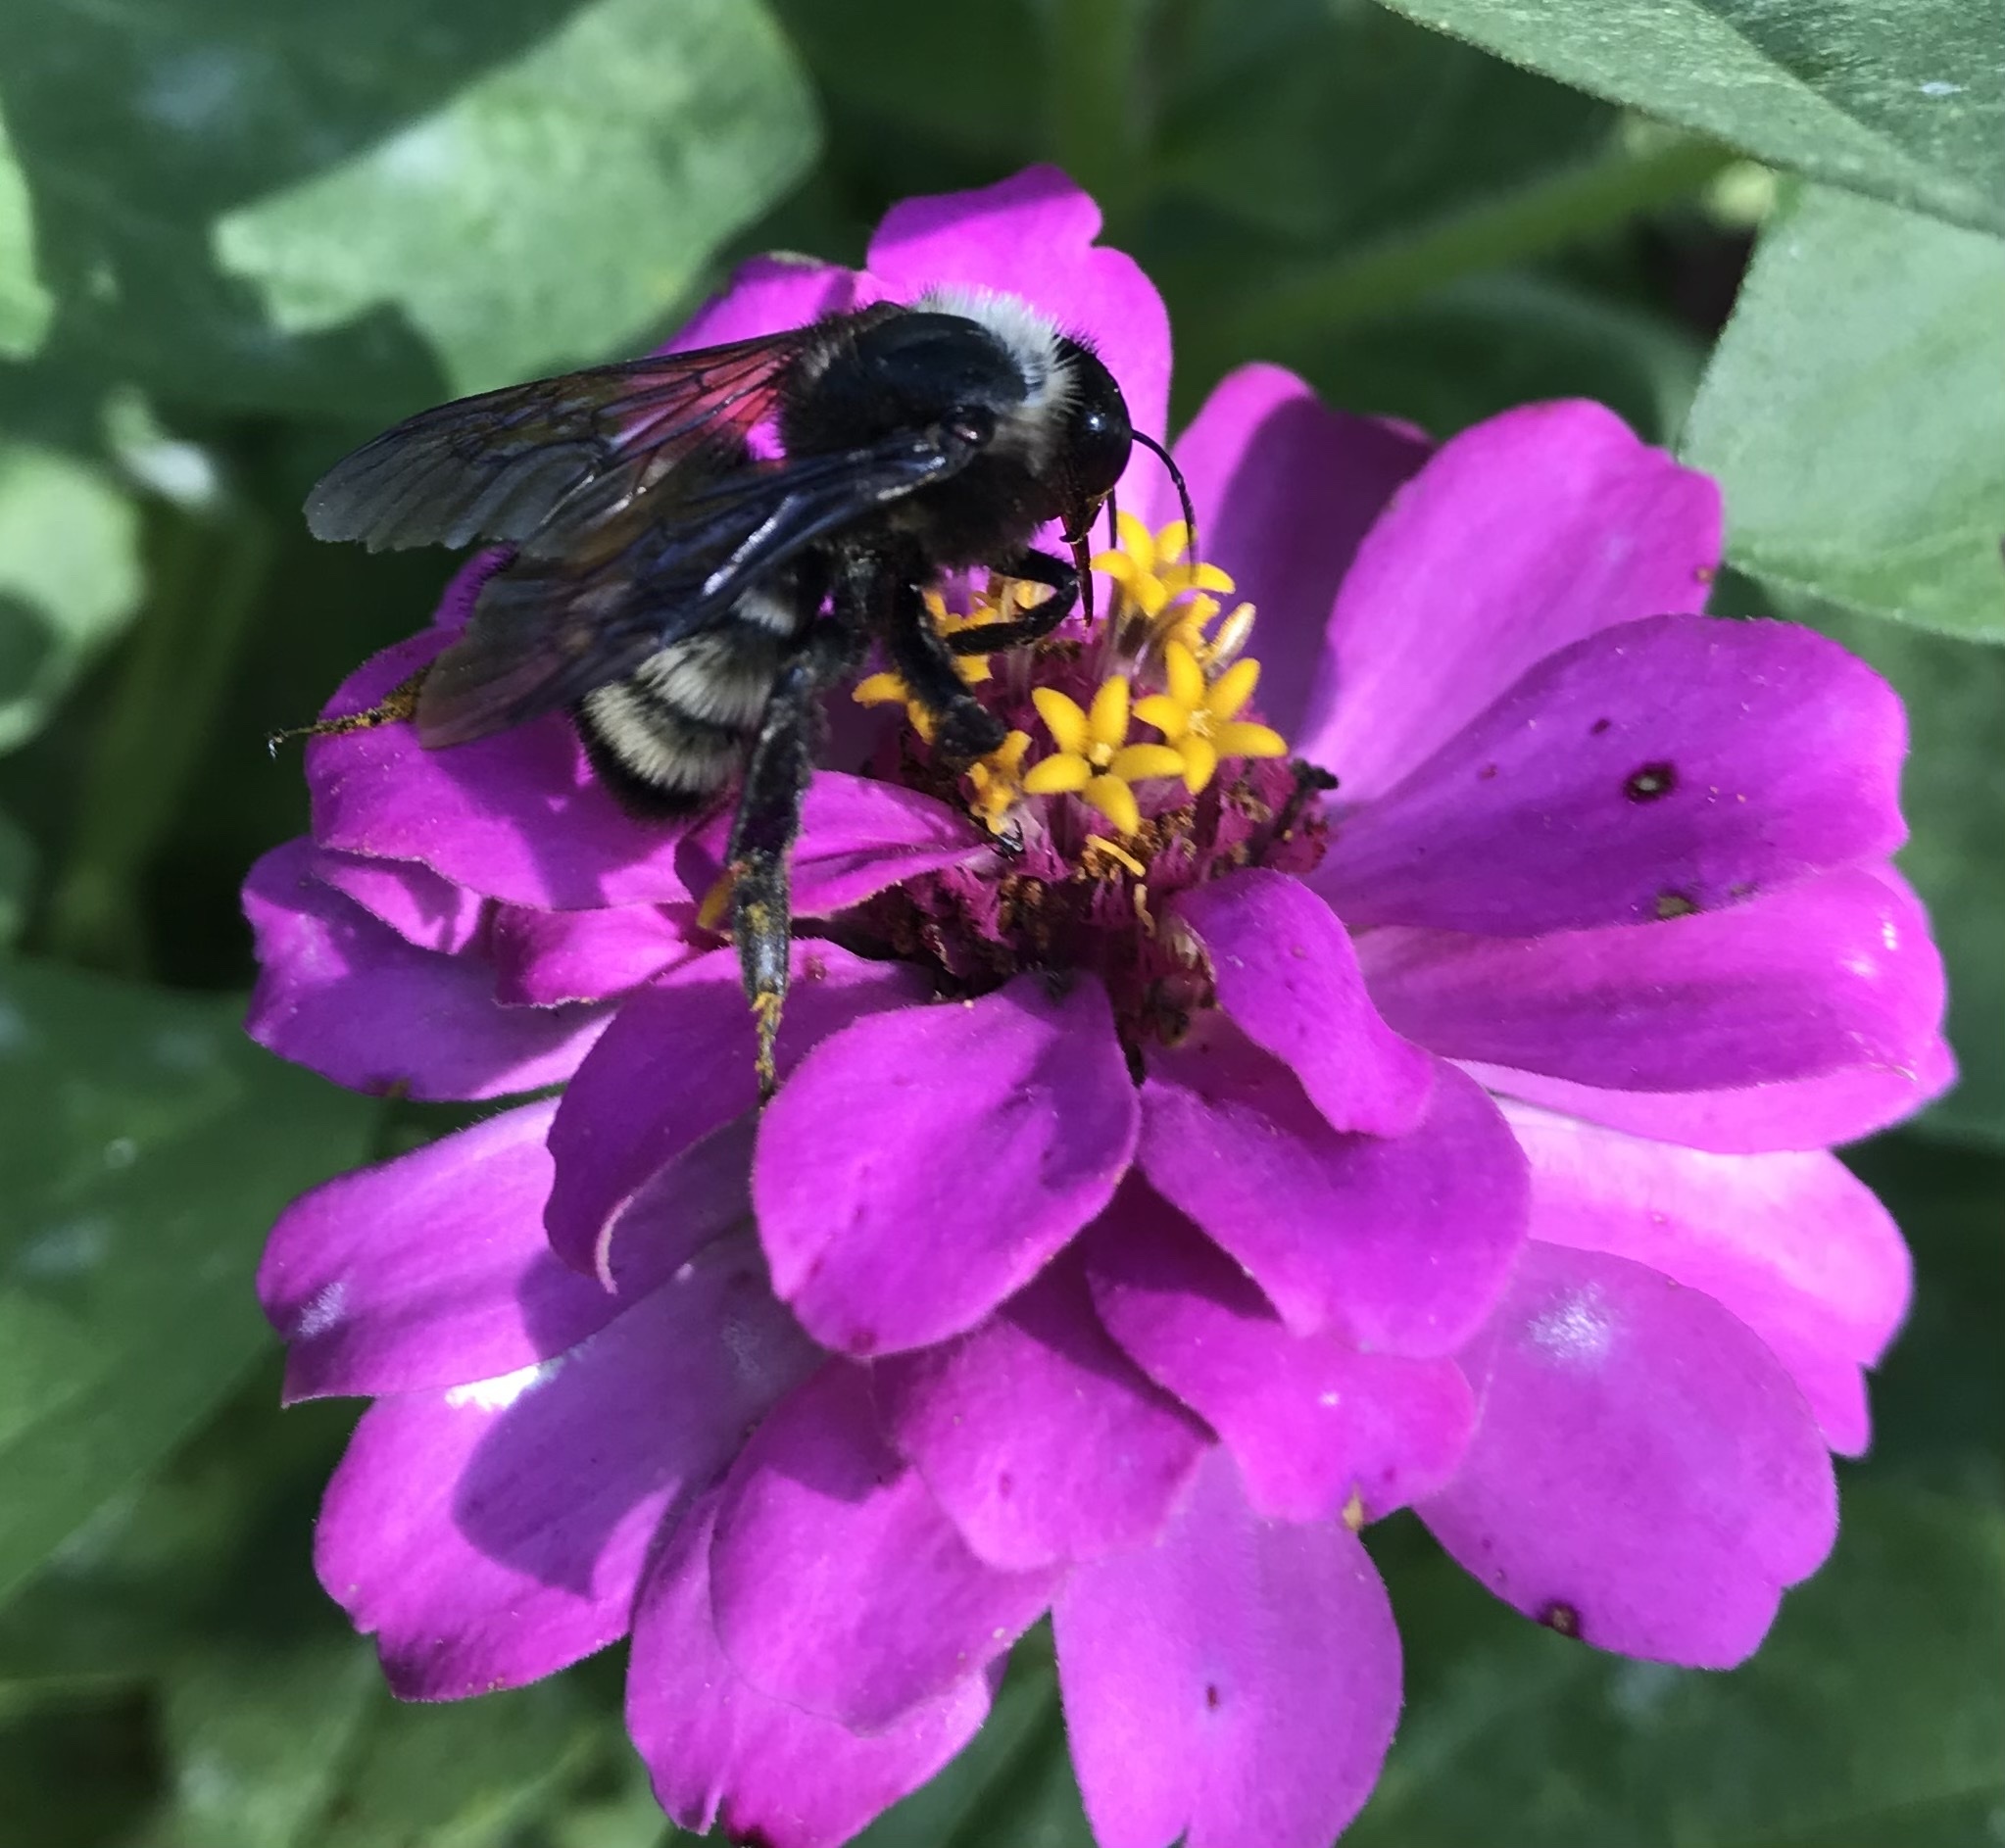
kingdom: Animalia
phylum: Arthropoda
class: Insecta
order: Hymenoptera
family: Apidae
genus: Bombus
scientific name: Bombus pensylvanicus
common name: Bumble bee
